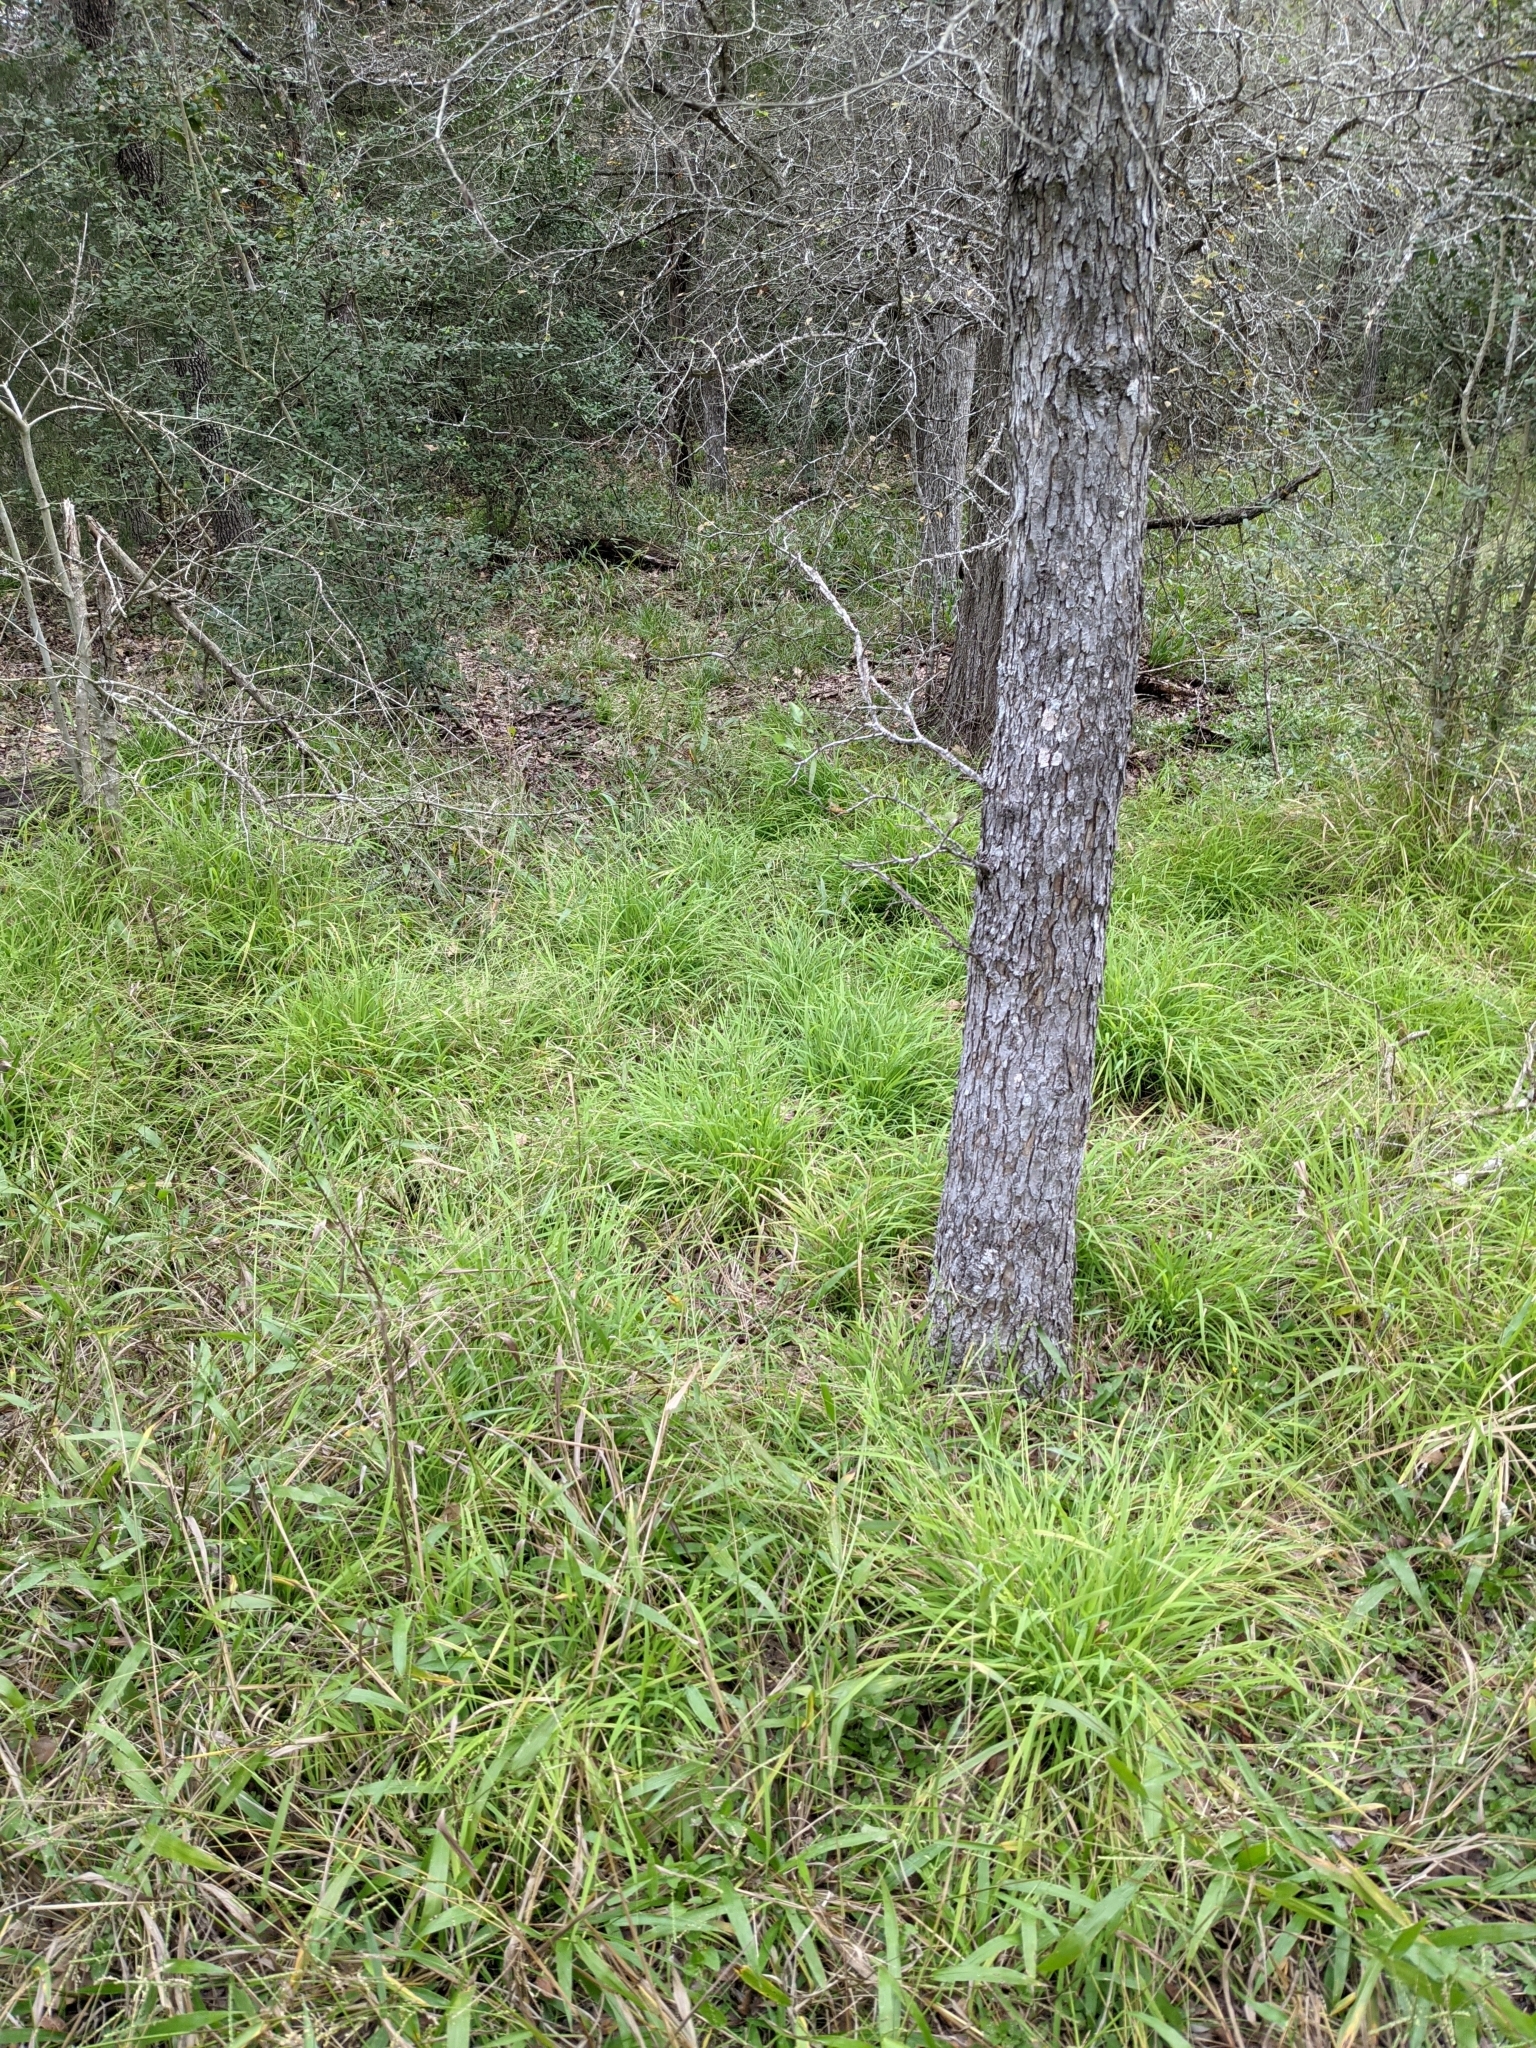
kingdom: Plantae
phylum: Tracheophyta
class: Liliopsida
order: Poales
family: Poaceae
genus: Leersia
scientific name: Leersia monandra
